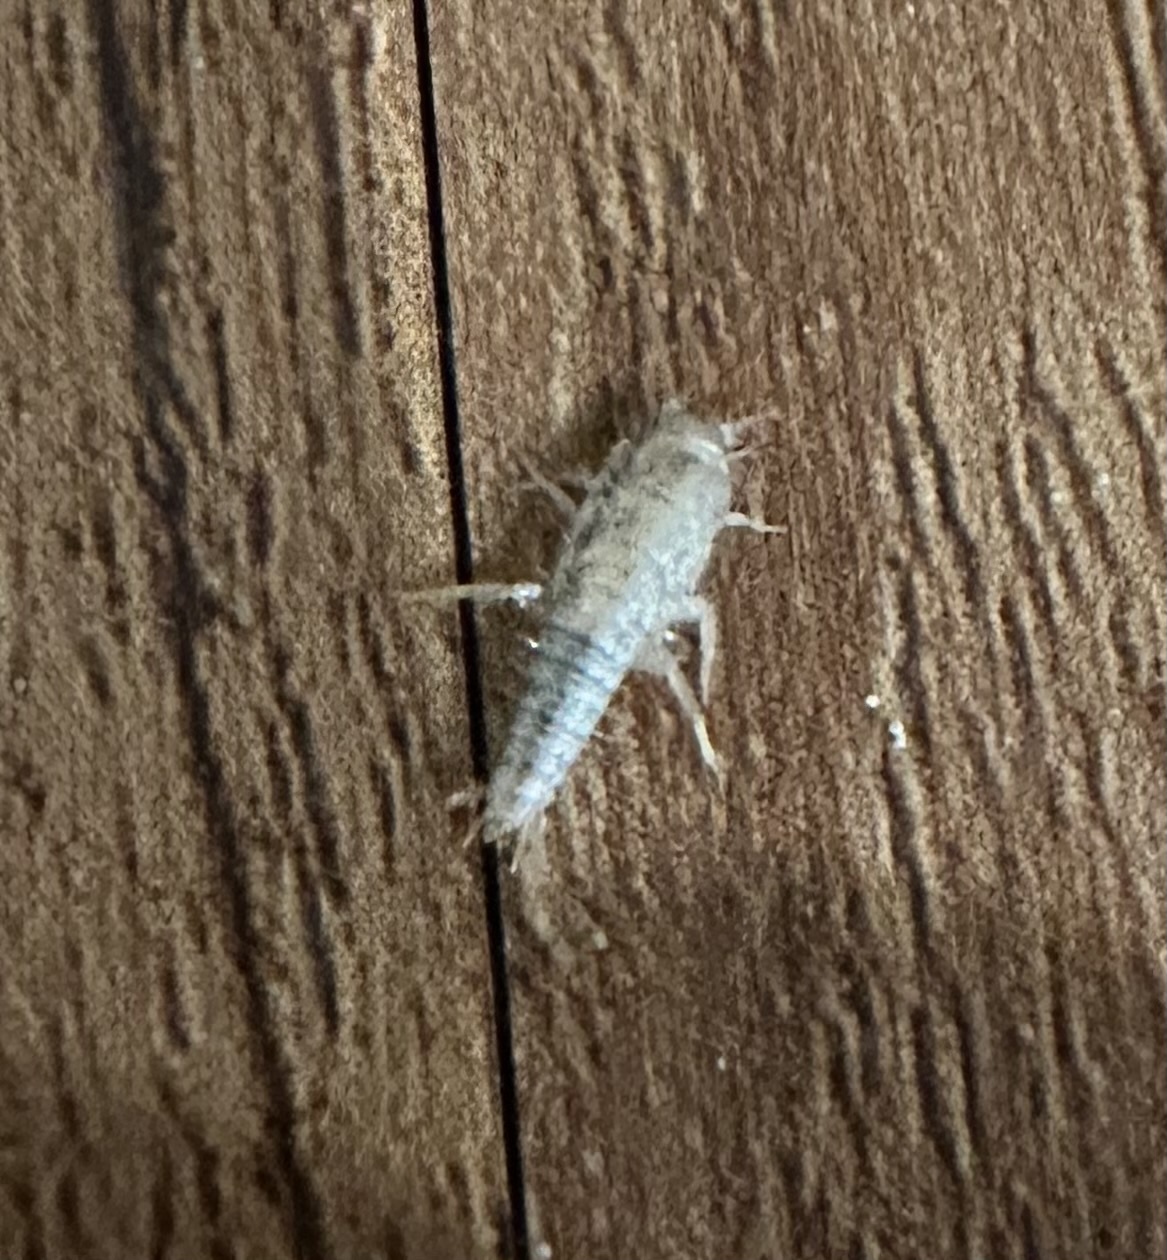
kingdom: Animalia
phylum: Arthropoda
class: Insecta
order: Zygentoma
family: Lepismatidae
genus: Ctenolepisma
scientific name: Ctenolepisma longicaudatum
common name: Silverfish
